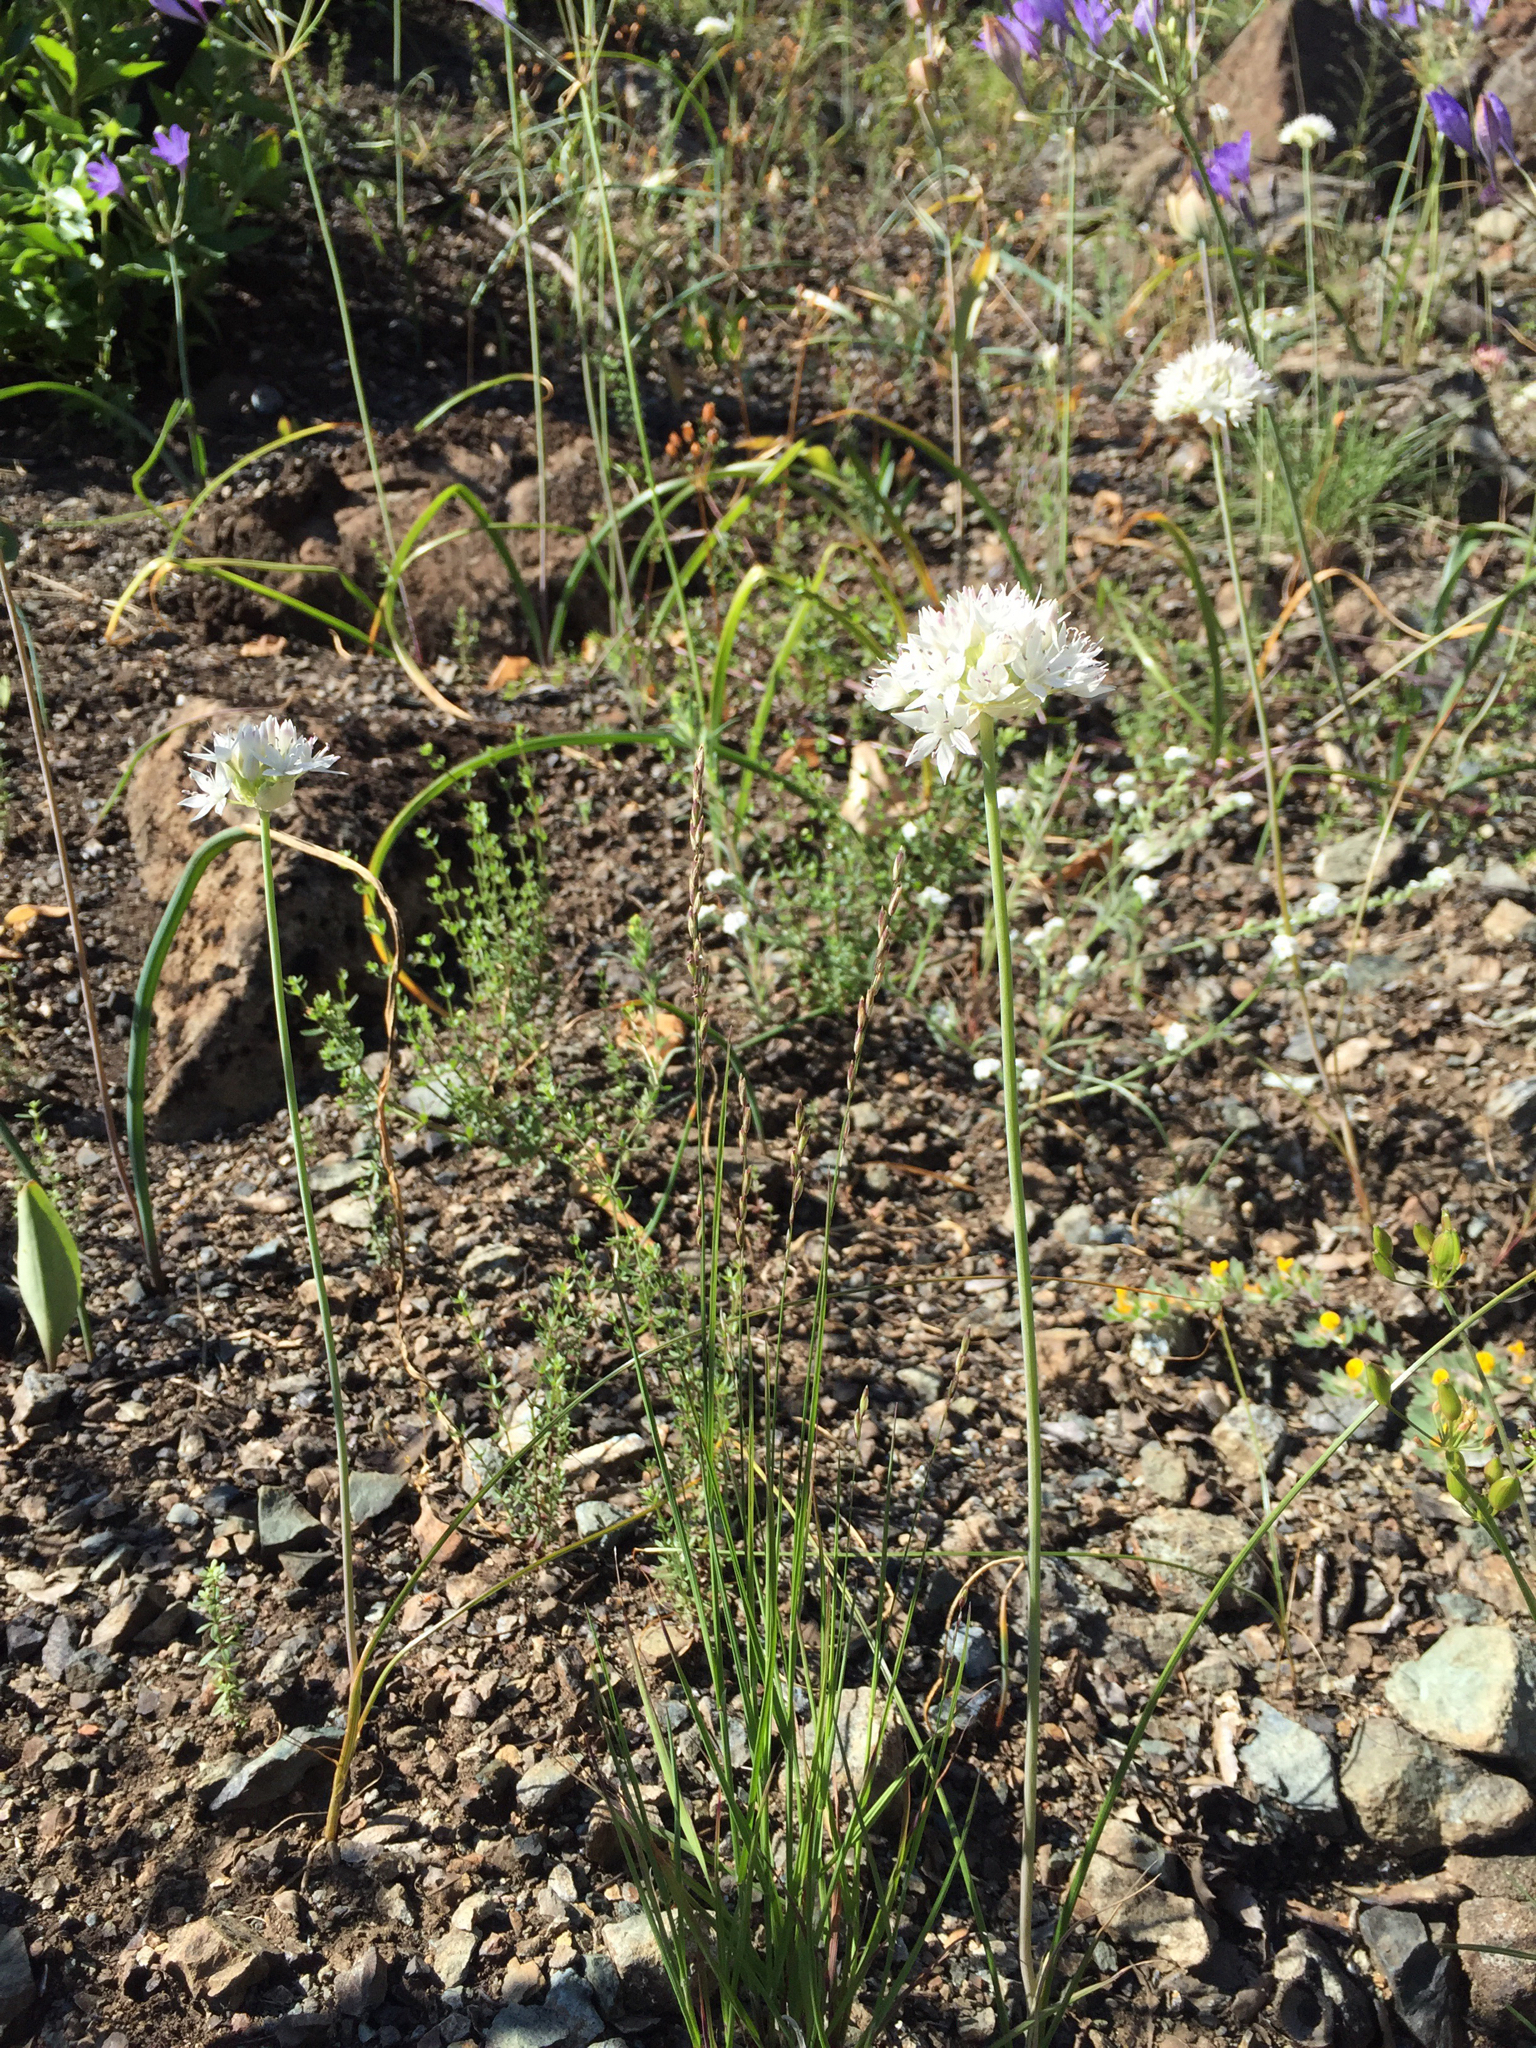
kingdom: Plantae
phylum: Tracheophyta
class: Liliopsida
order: Asparagales
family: Amaryllidaceae
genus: Allium
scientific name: Allium amplectens
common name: Narrow-leaved onion
